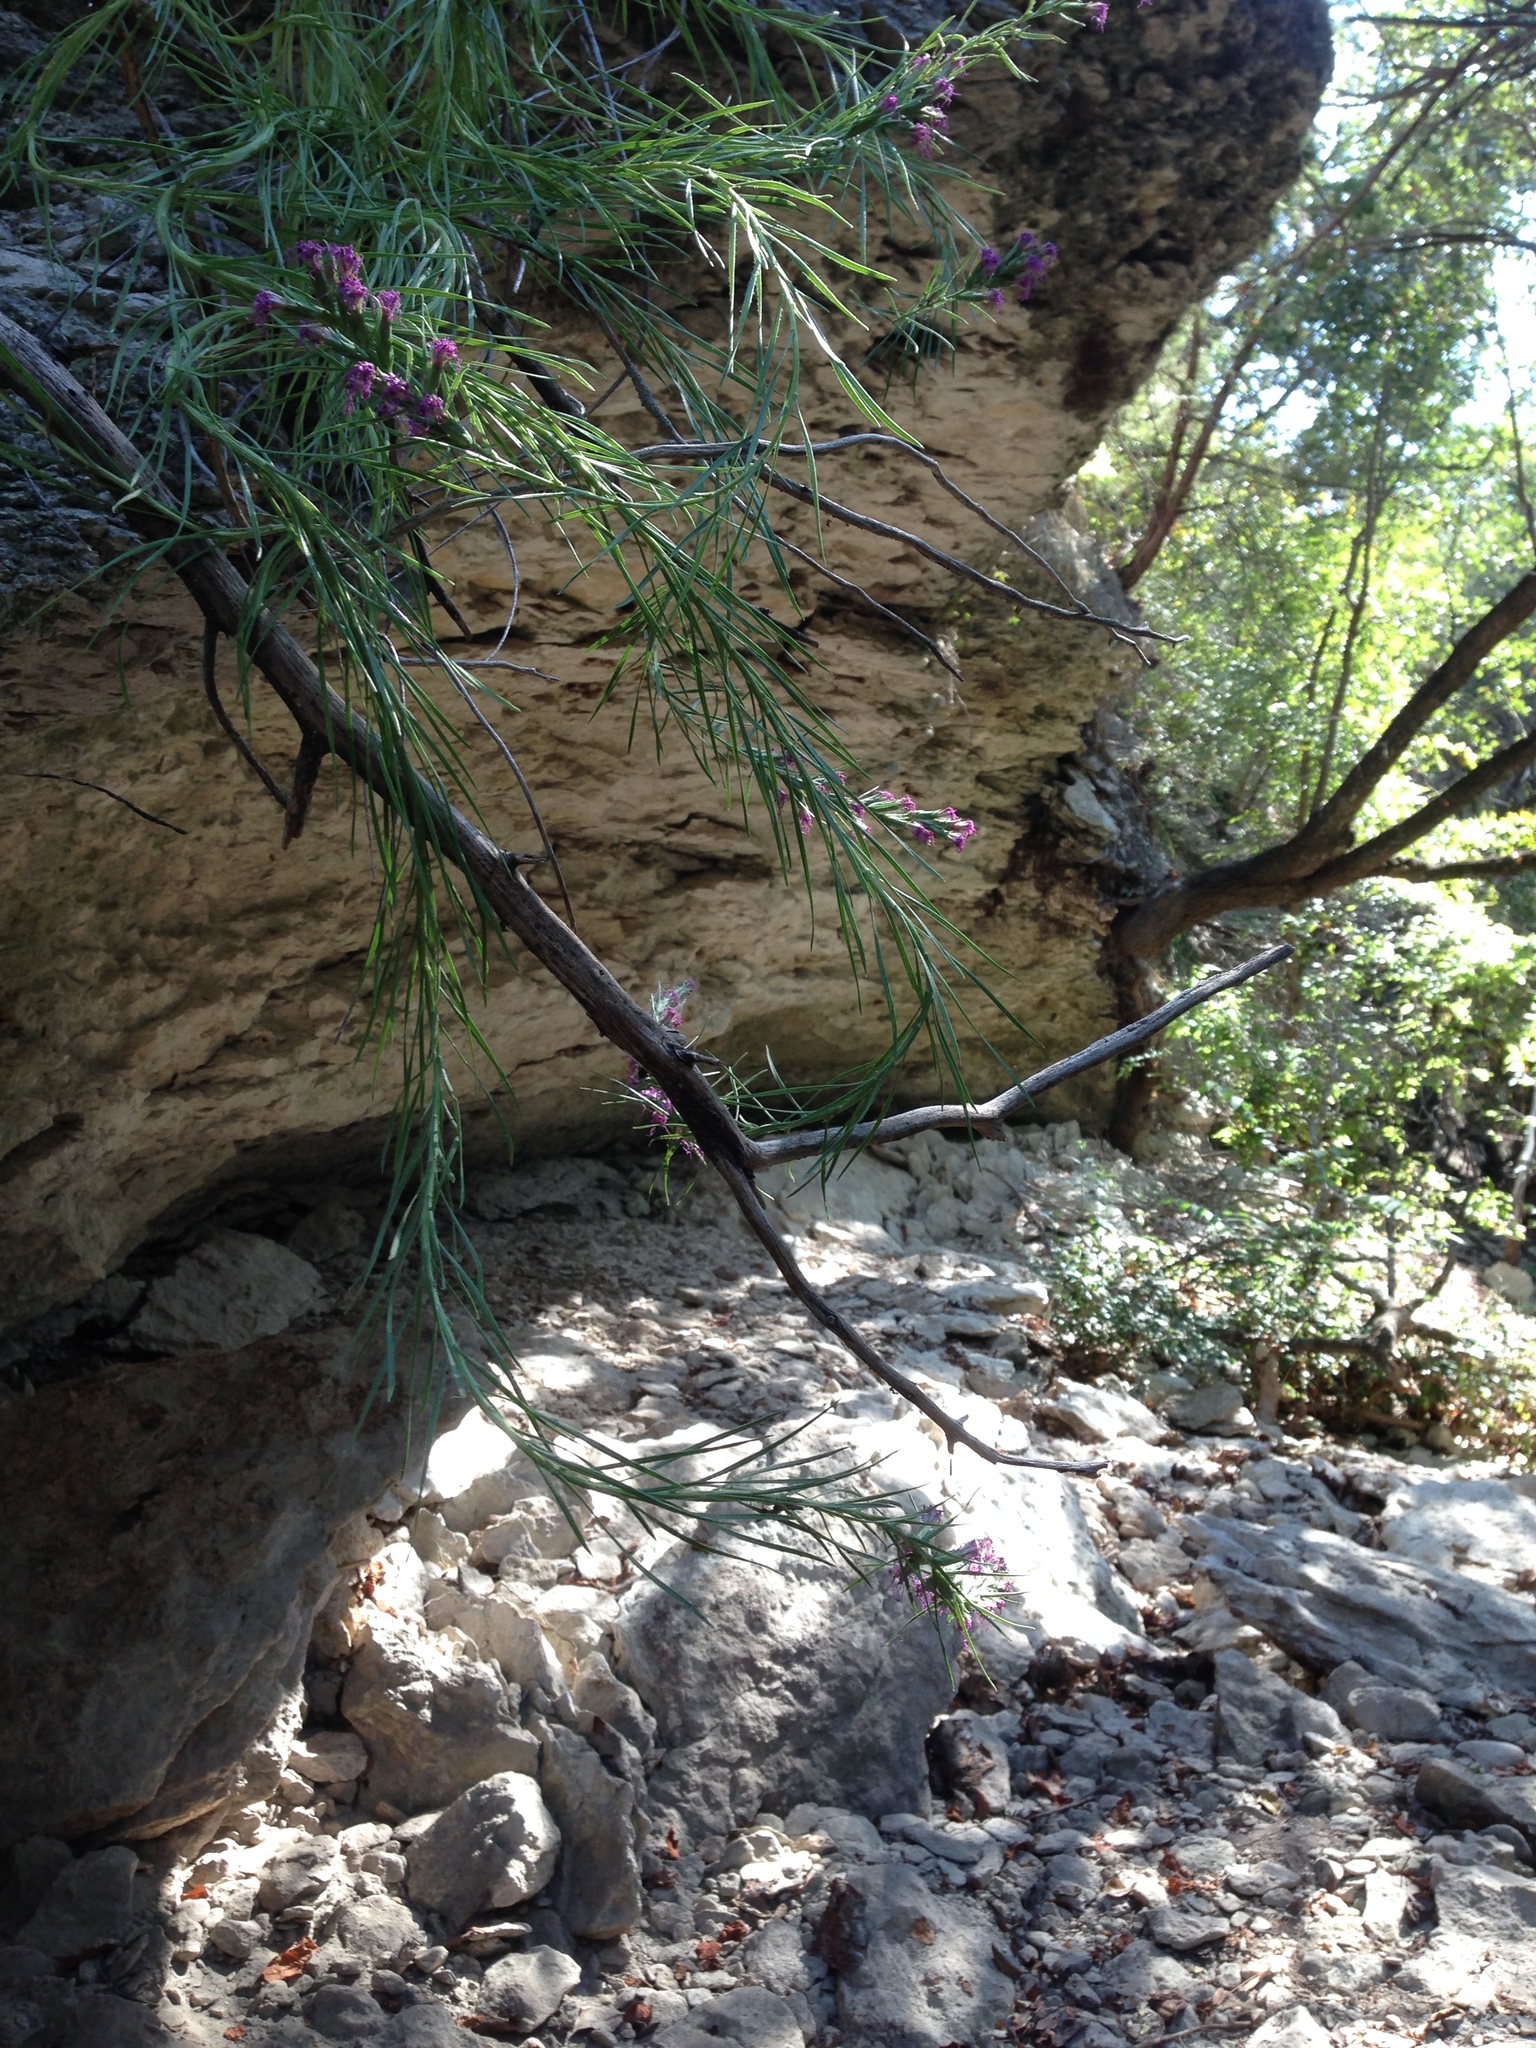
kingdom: Plantae
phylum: Tracheophyta
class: Magnoliopsida
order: Asterales
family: Asteraceae
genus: Liatris
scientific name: Liatris punctata
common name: Dotted gayfeather
